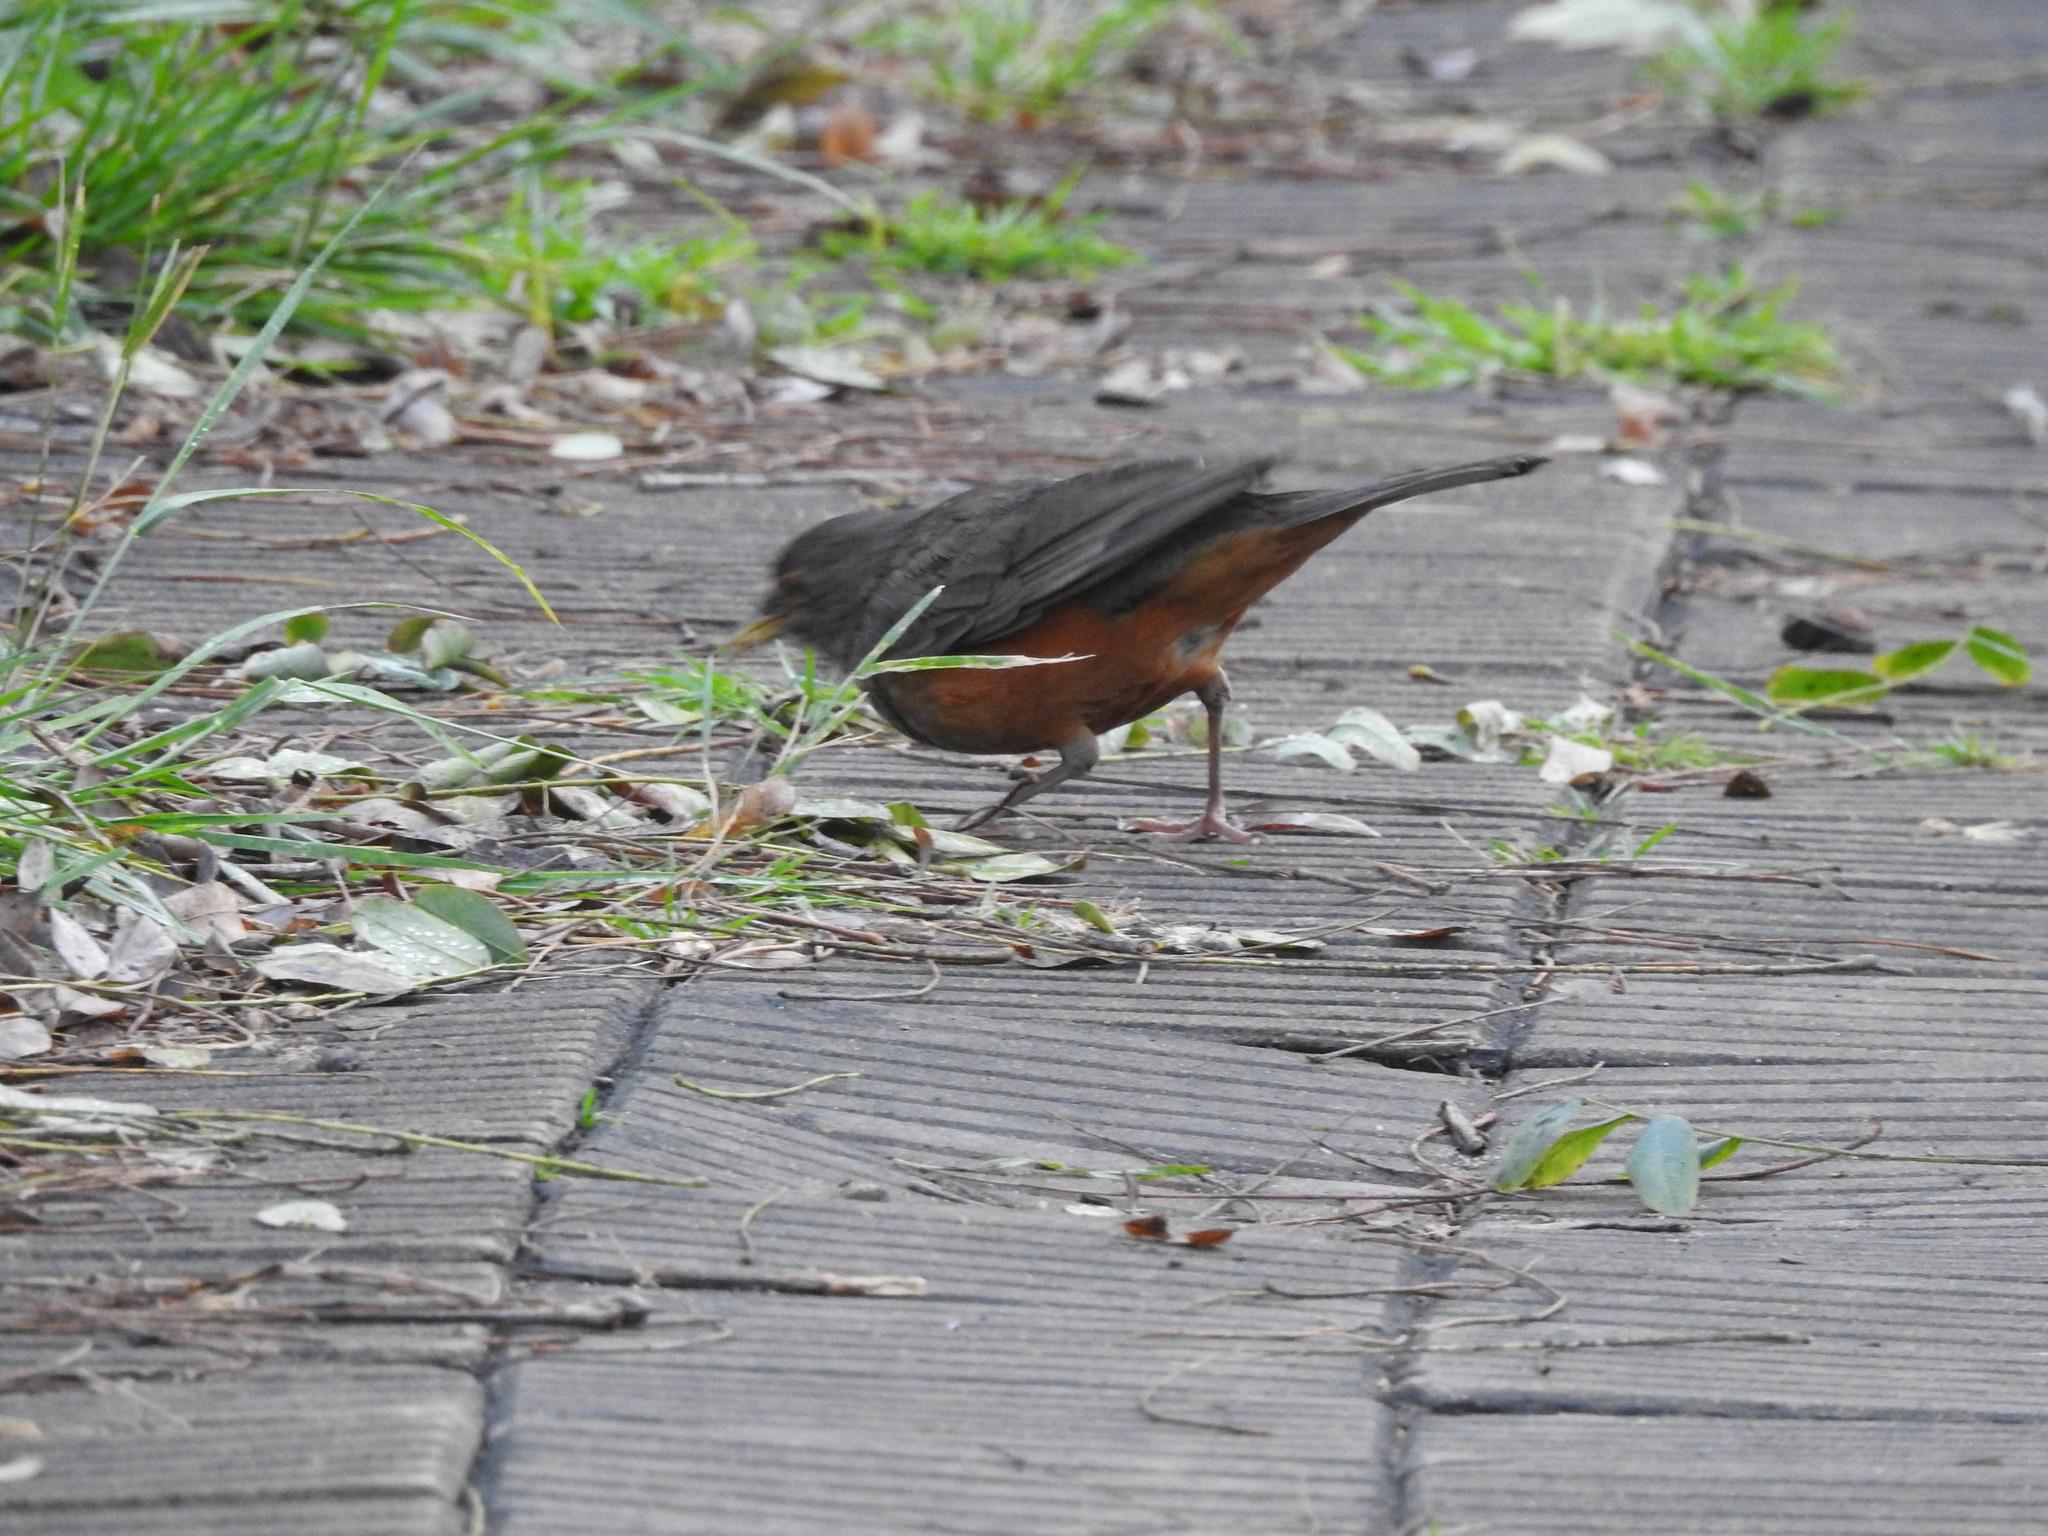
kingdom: Animalia
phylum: Chordata
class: Aves
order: Passeriformes
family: Turdidae
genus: Turdus
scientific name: Turdus rufiventris
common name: Rufous-bellied thrush
